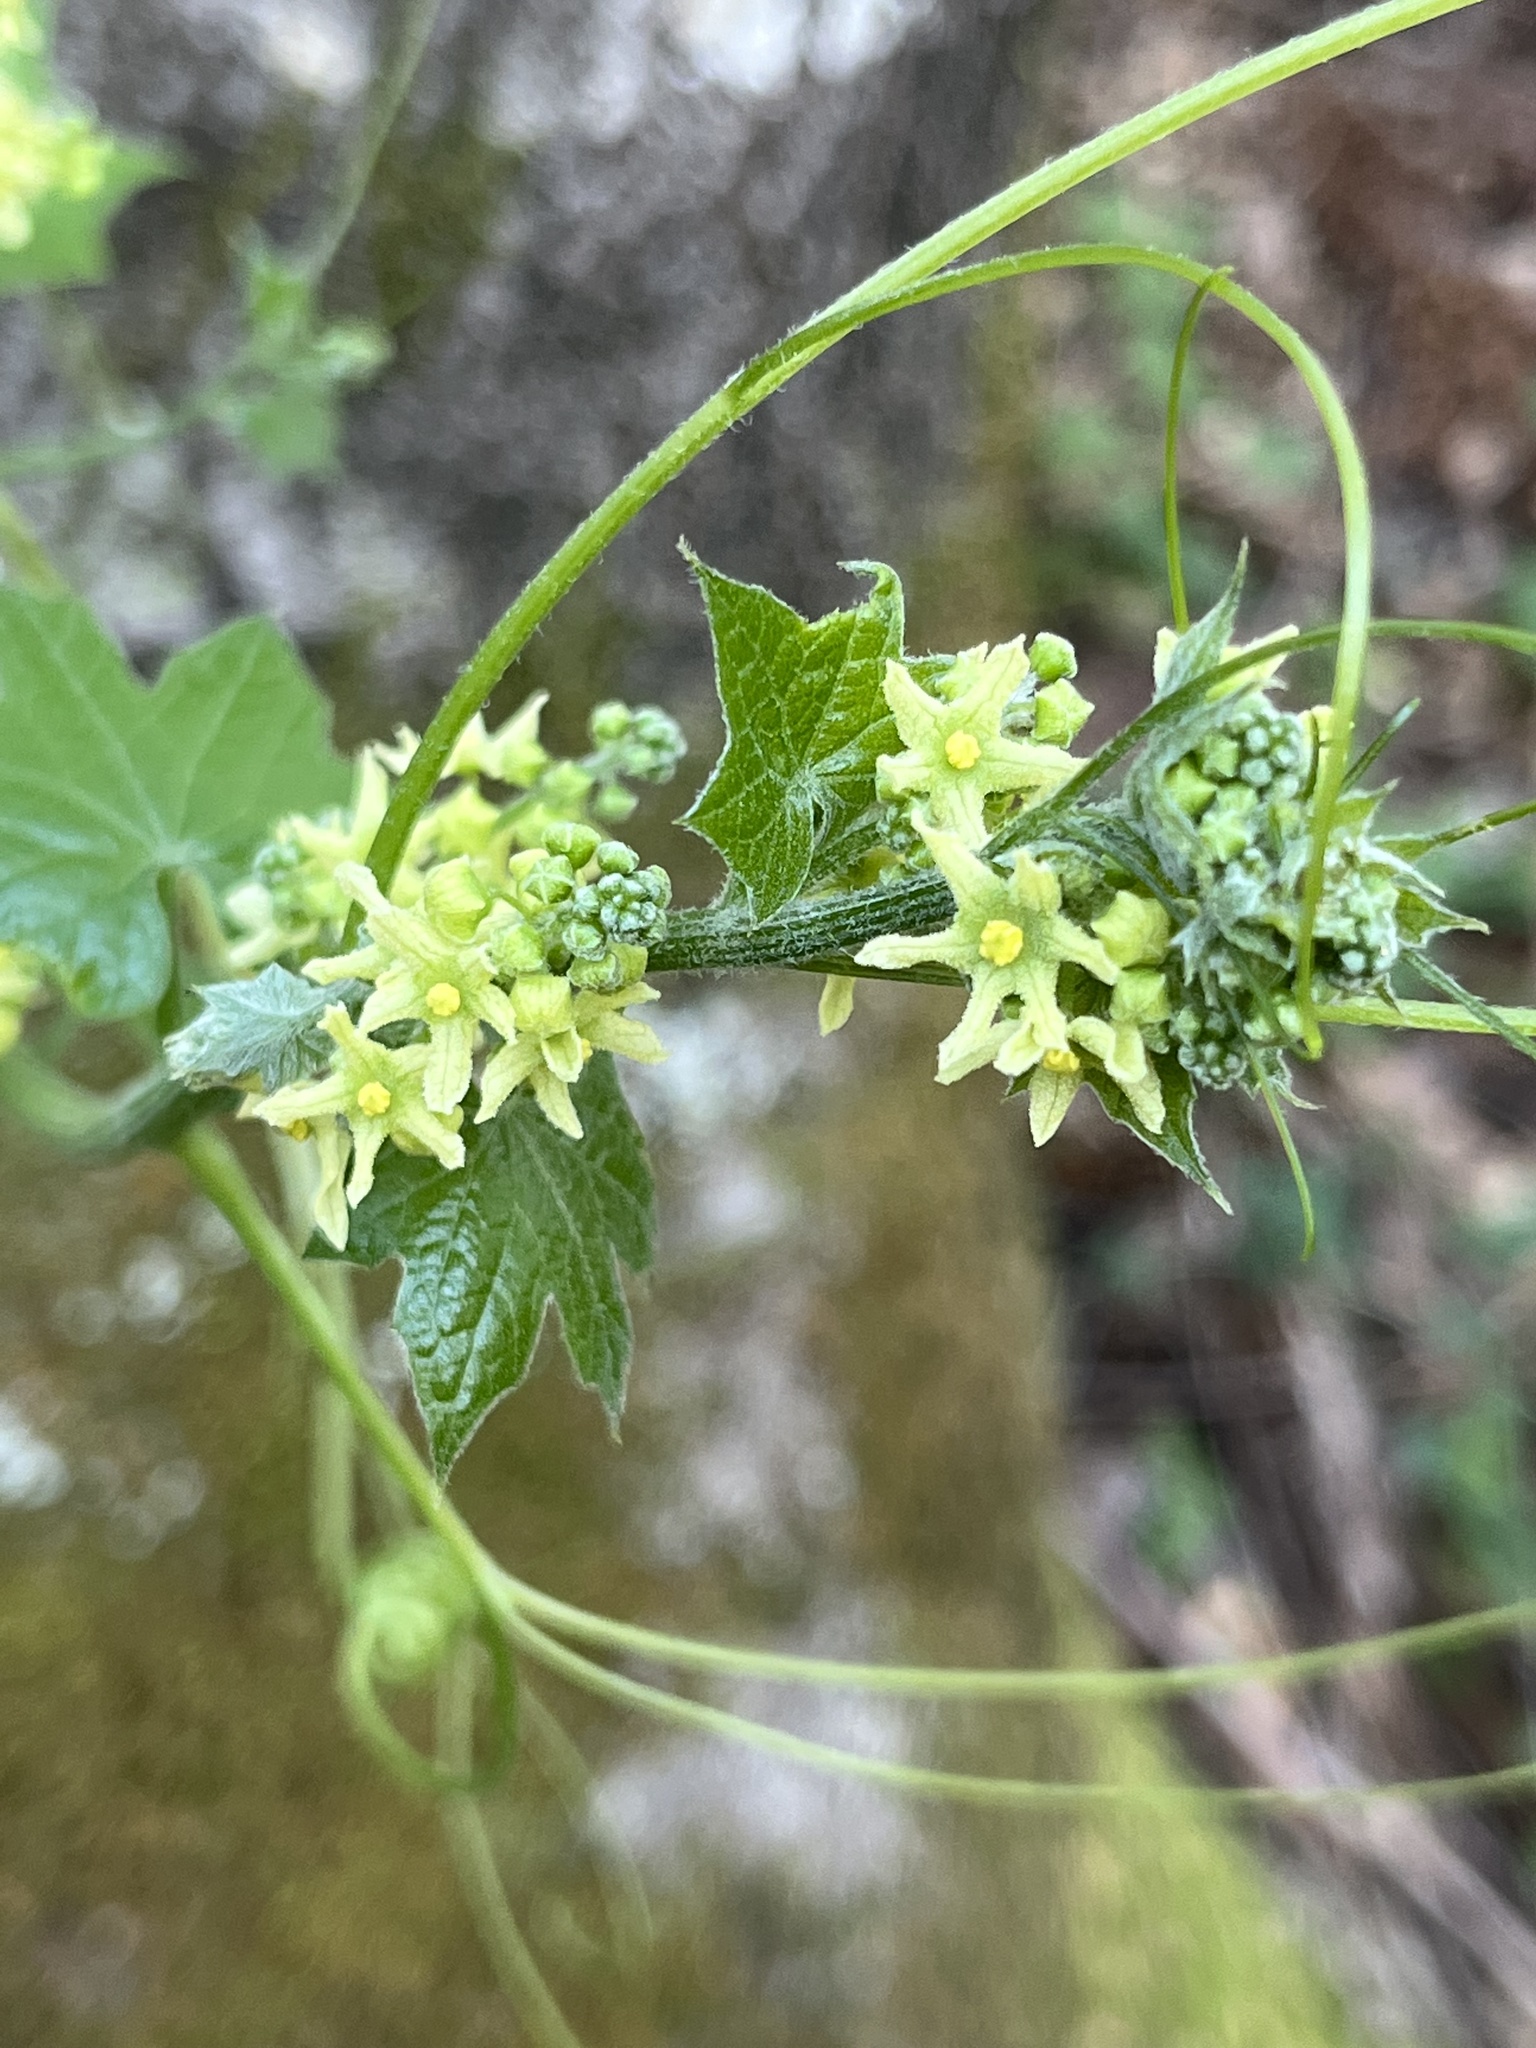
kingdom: Plantae
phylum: Tracheophyta
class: Magnoliopsida
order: Cucurbitales
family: Cucurbitaceae
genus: Marah
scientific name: Marah fabacea
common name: California manroot
